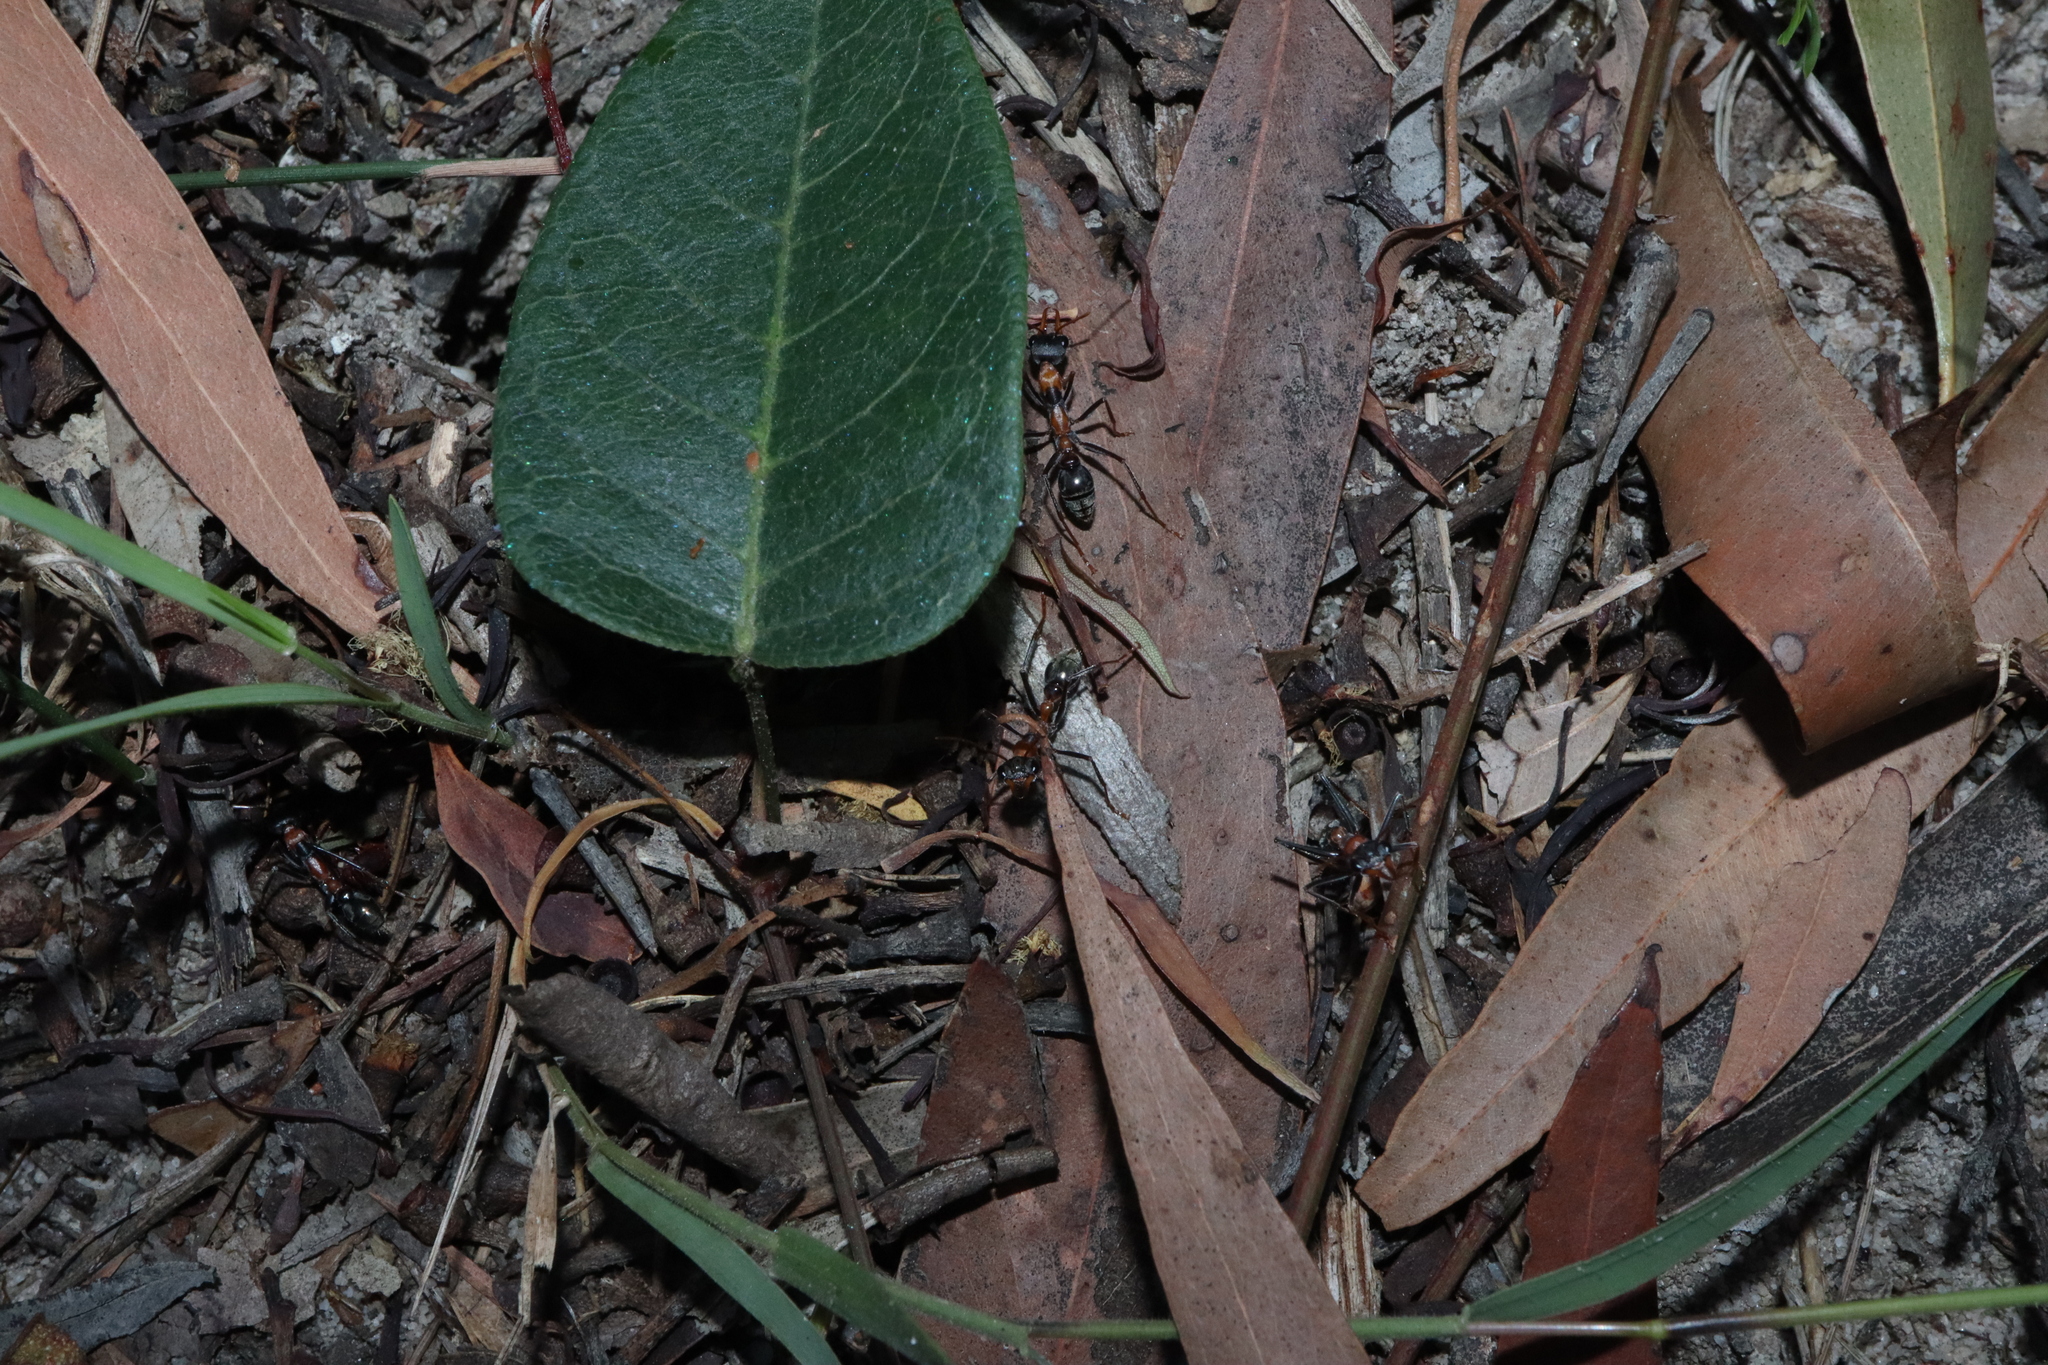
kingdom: Animalia
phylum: Arthropoda
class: Insecta
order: Hymenoptera
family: Formicidae
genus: Myrmecia
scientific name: Myrmecia nigrocincta
